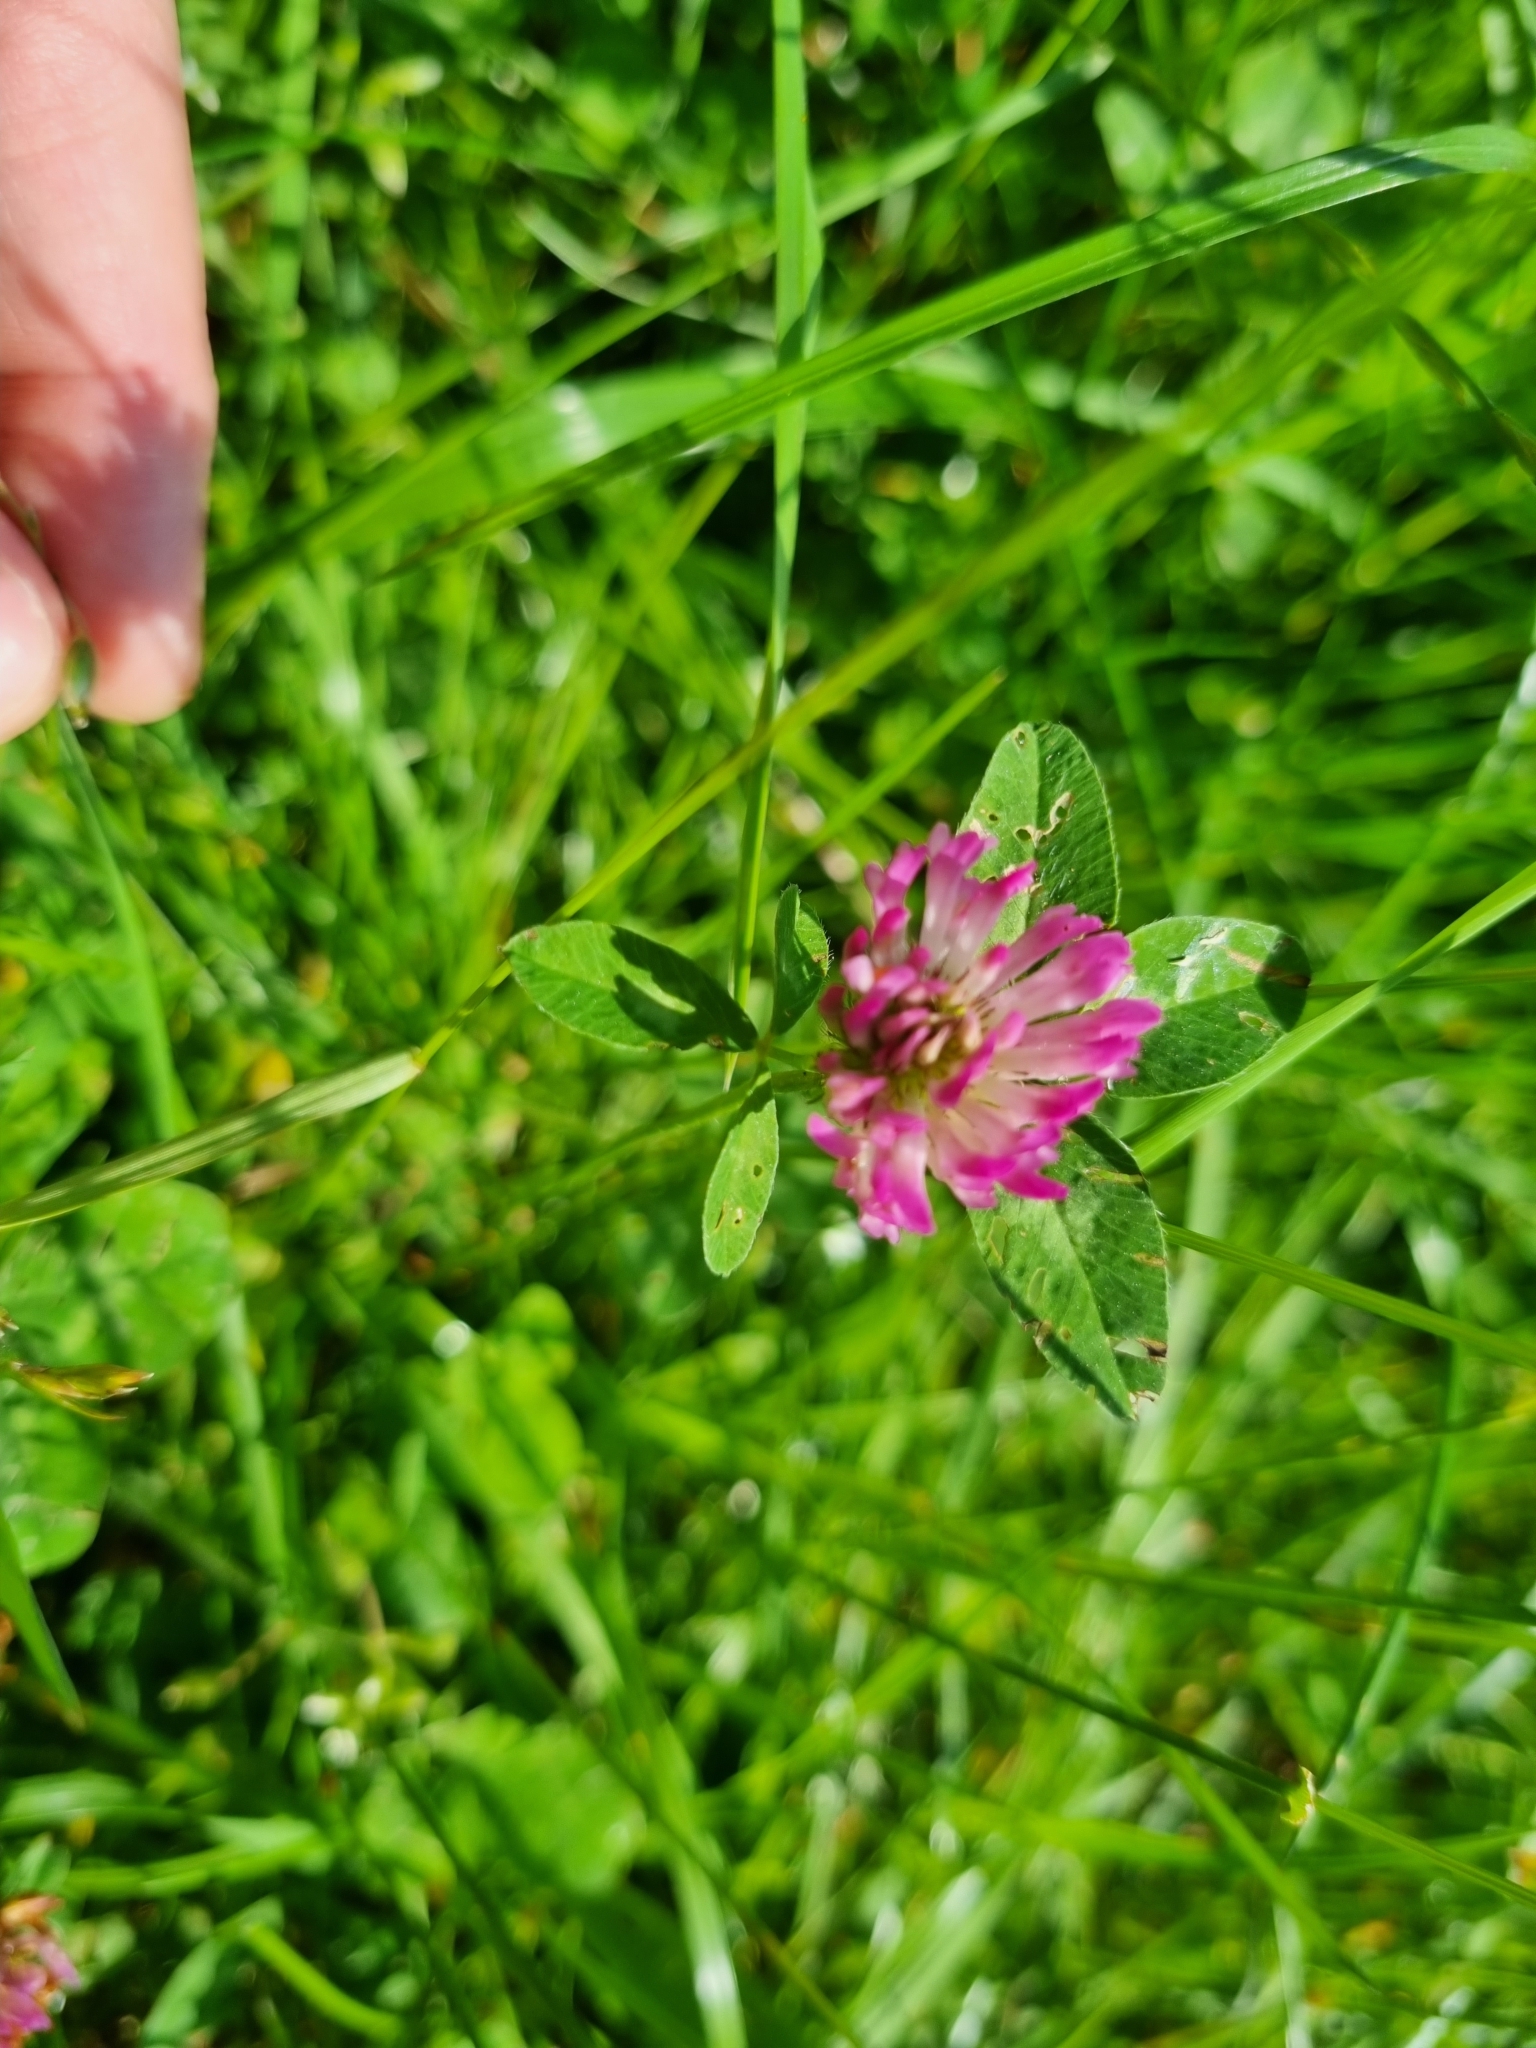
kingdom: Plantae
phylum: Tracheophyta
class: Magnoliopsida
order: Fabales
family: Fabaceae
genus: Trifolium
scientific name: Trifolium pratense
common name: Red clover
